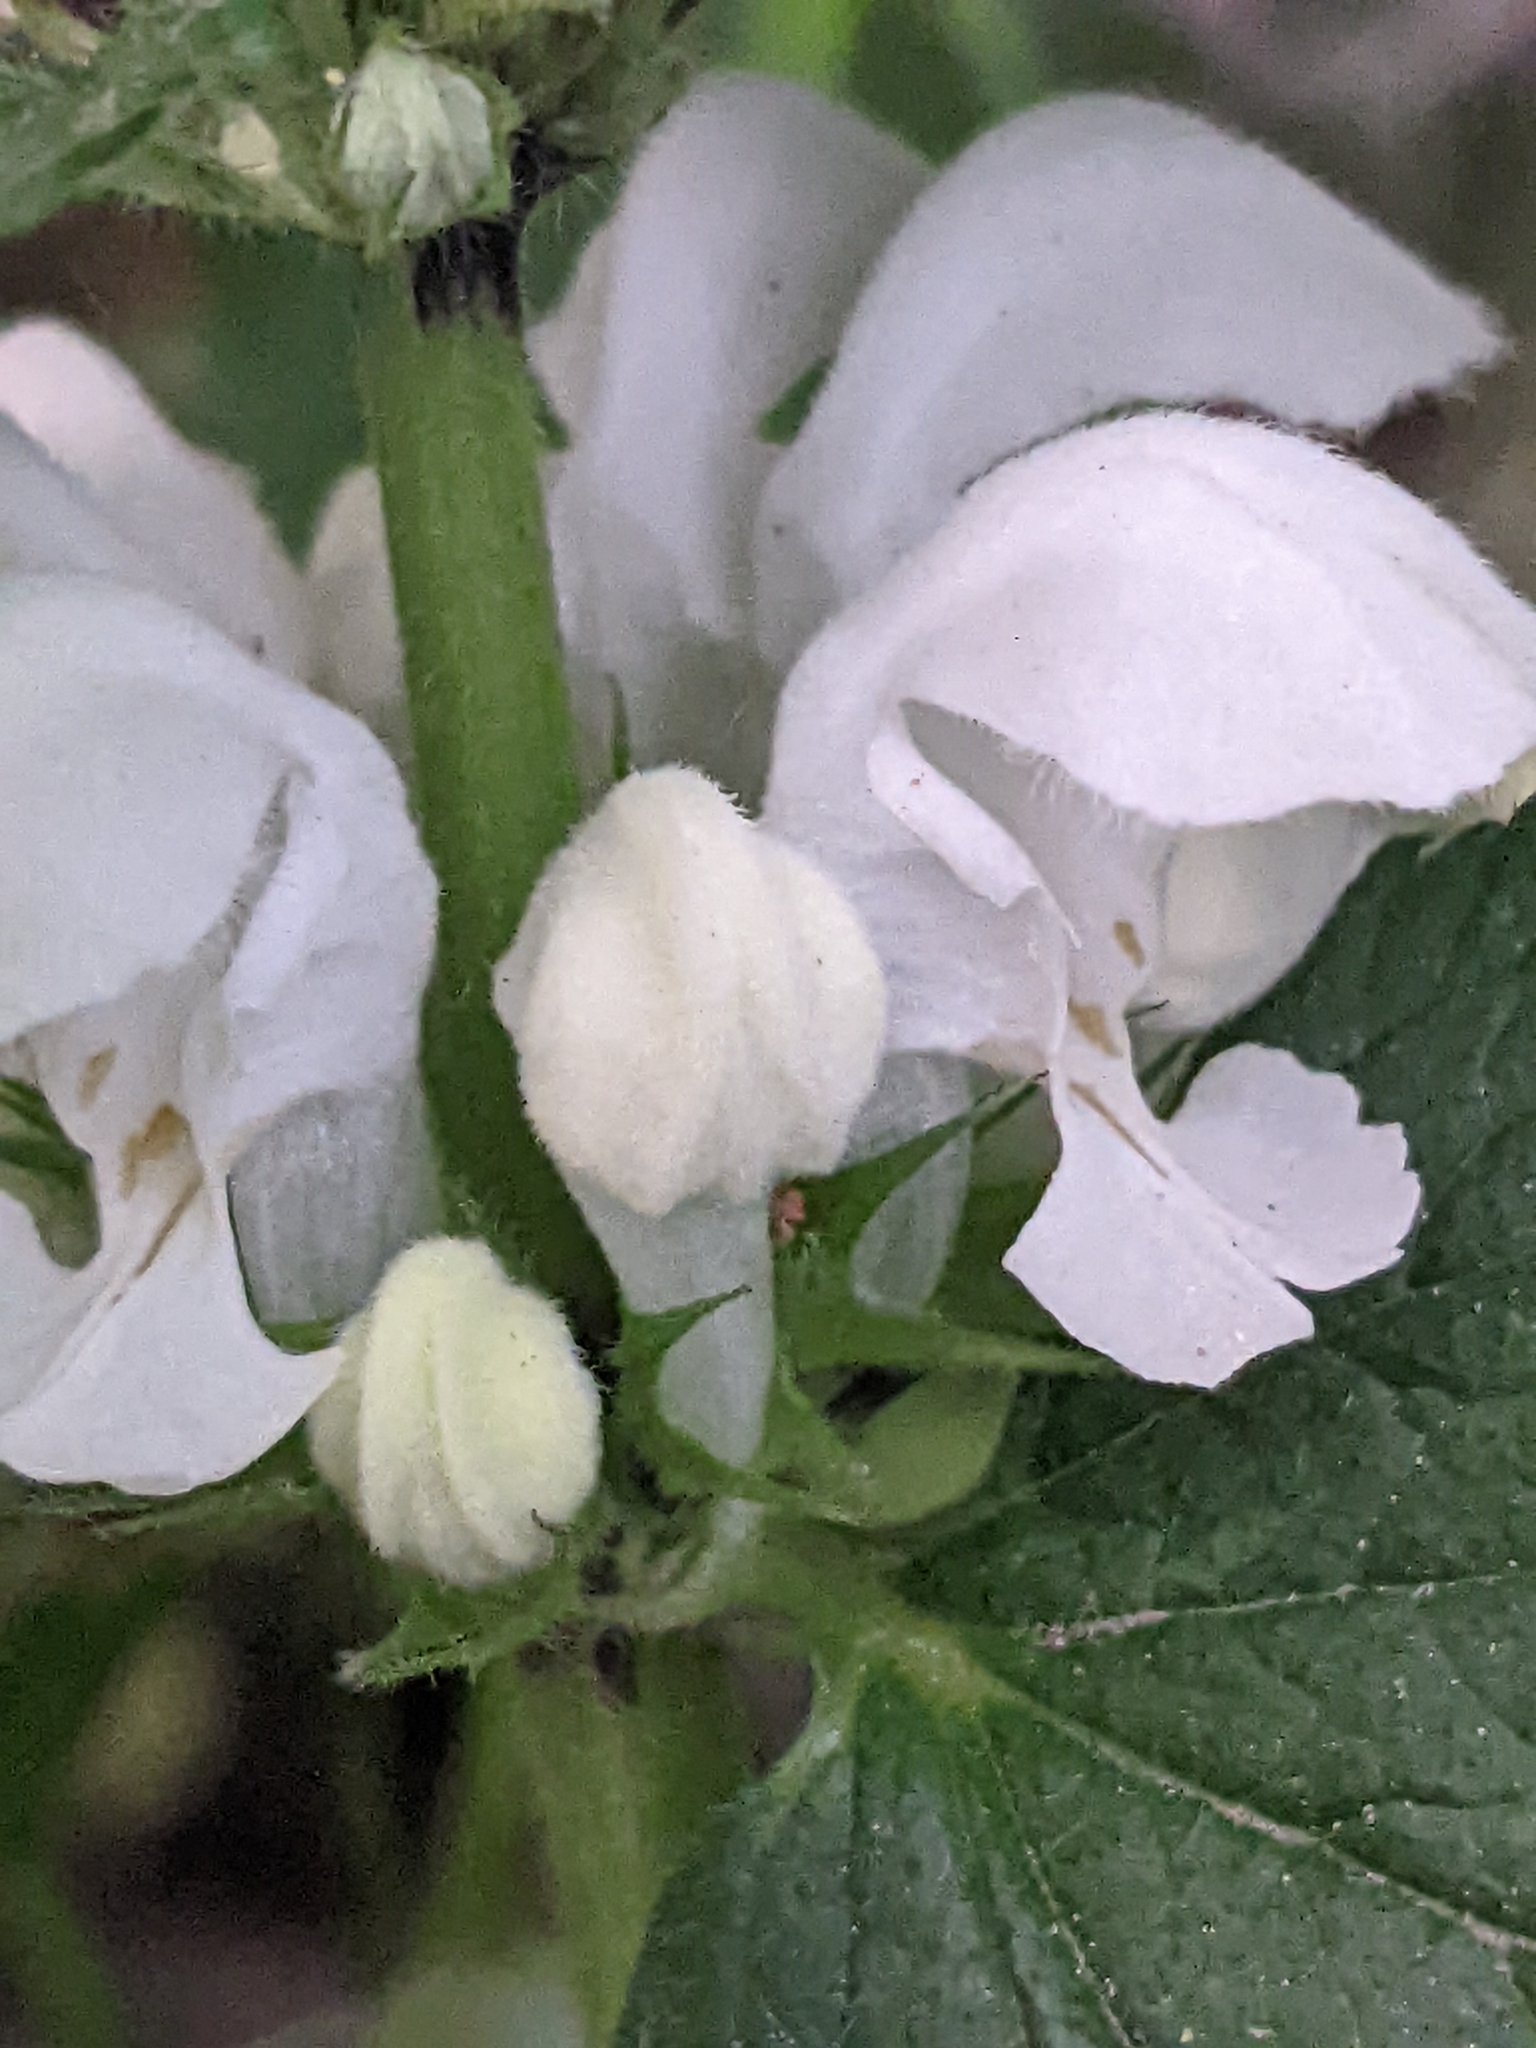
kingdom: Plantae
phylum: Tracheophyta
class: Magnoliopsida
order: Lamiales
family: Lamiaceae
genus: Lamium
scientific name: Lamium album
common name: White dead-nettle
